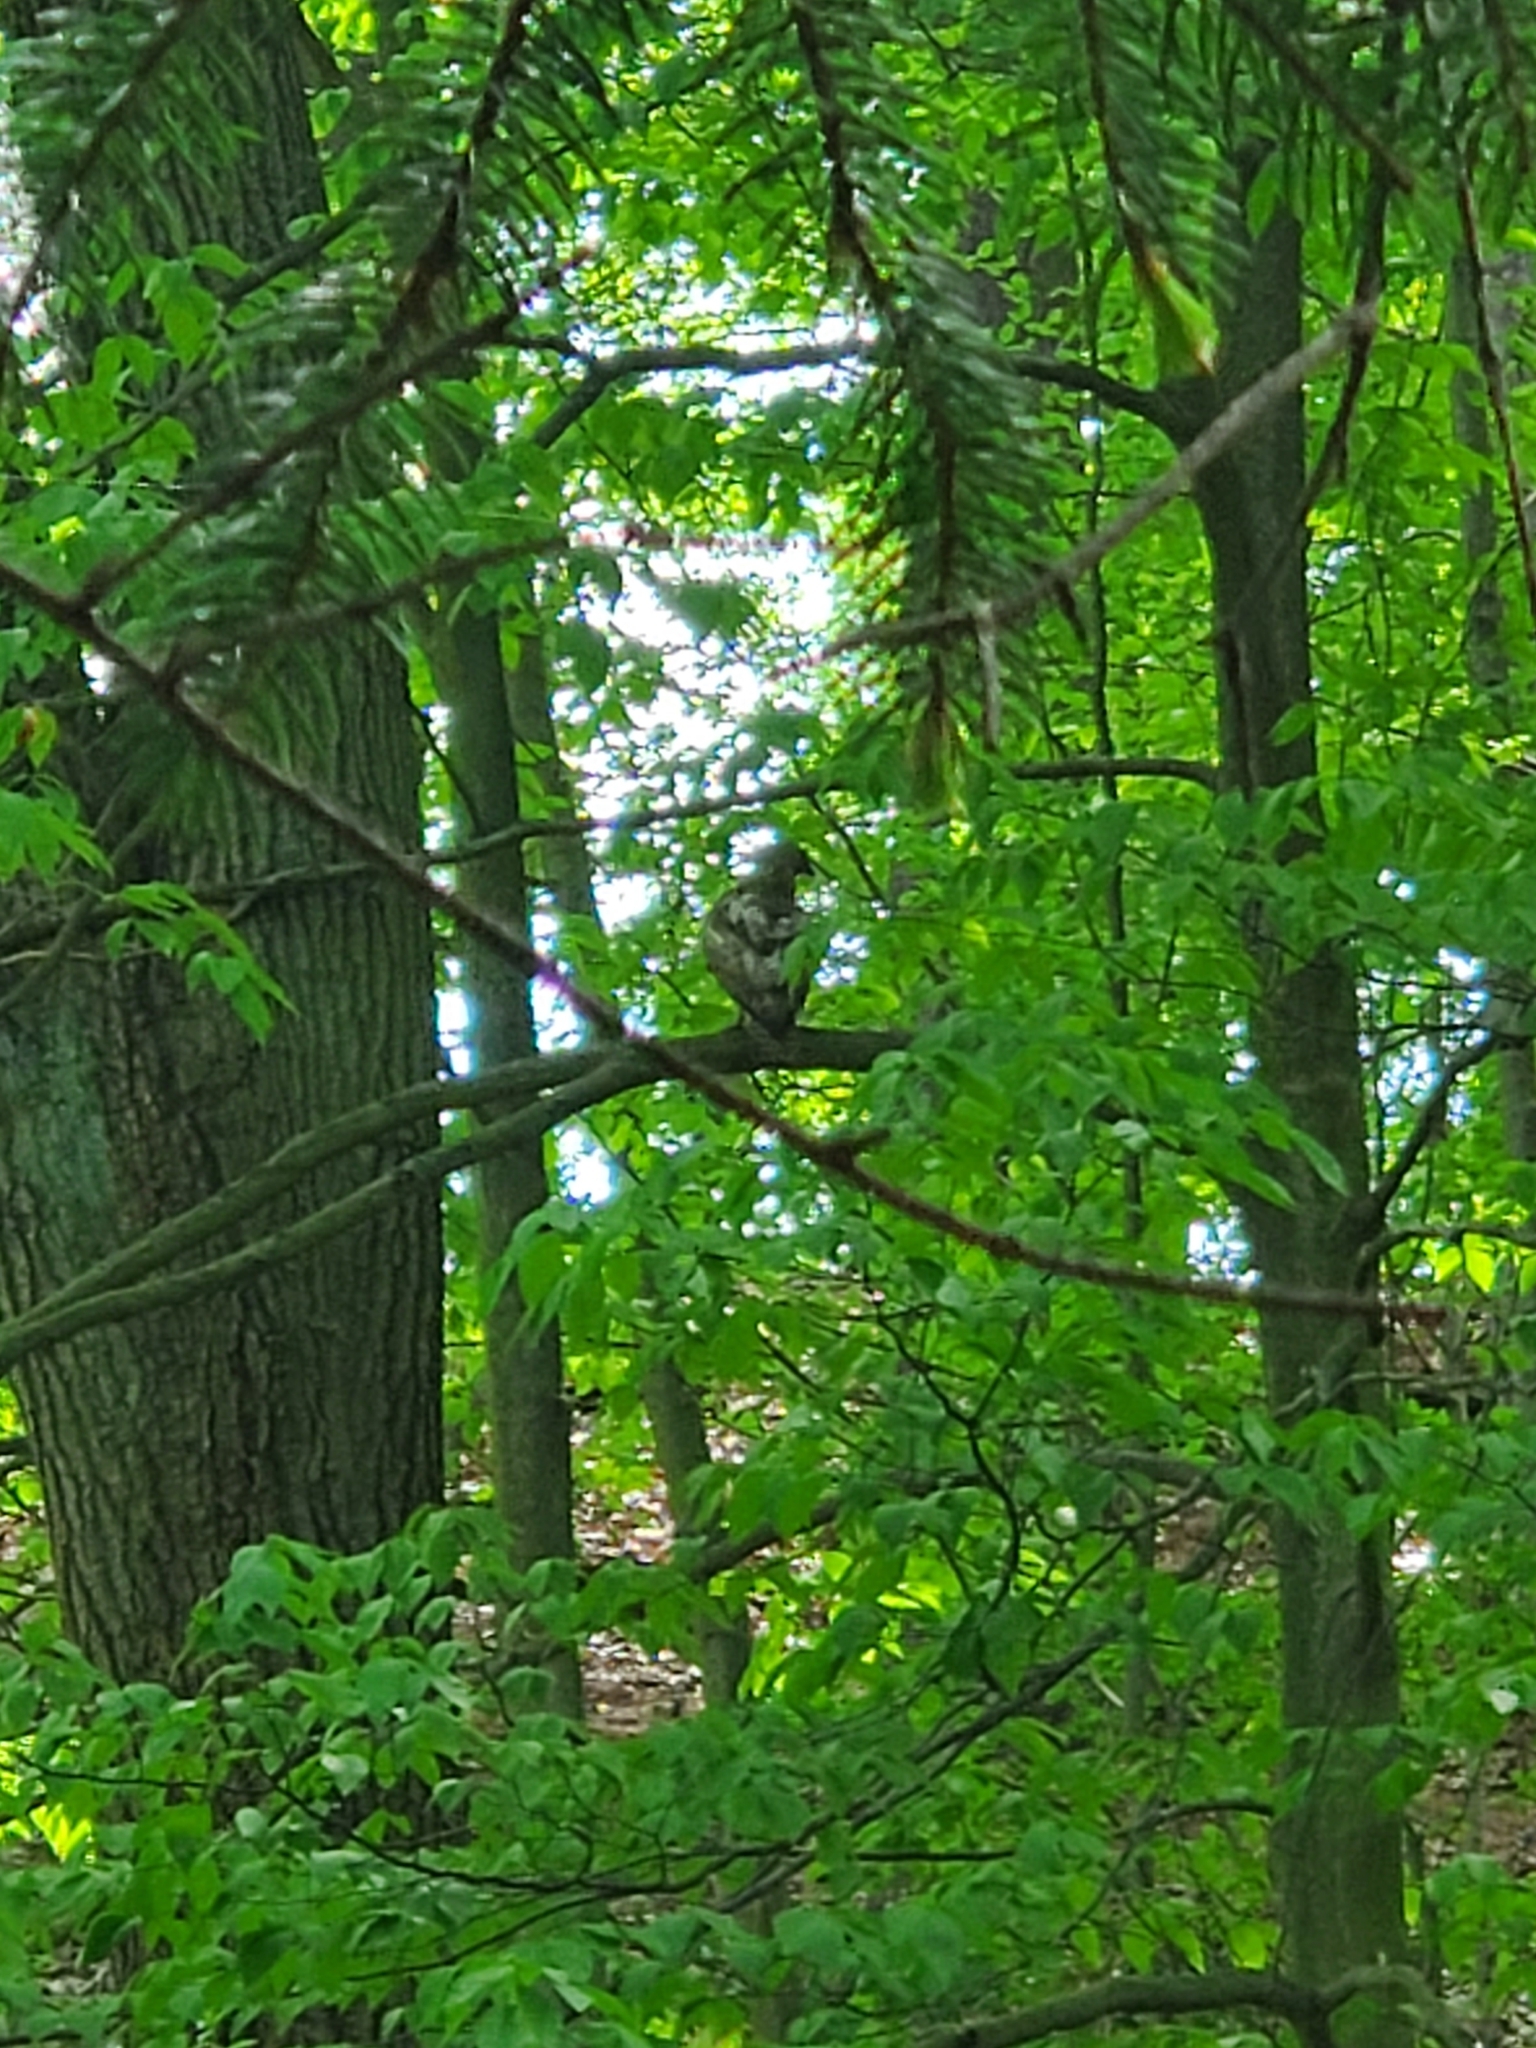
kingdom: Animalia
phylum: Chordata
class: Aves
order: Accipitriformes
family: Accipitridae
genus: Buteo
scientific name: Buteo jamaicensis
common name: Red-tailed hawk
